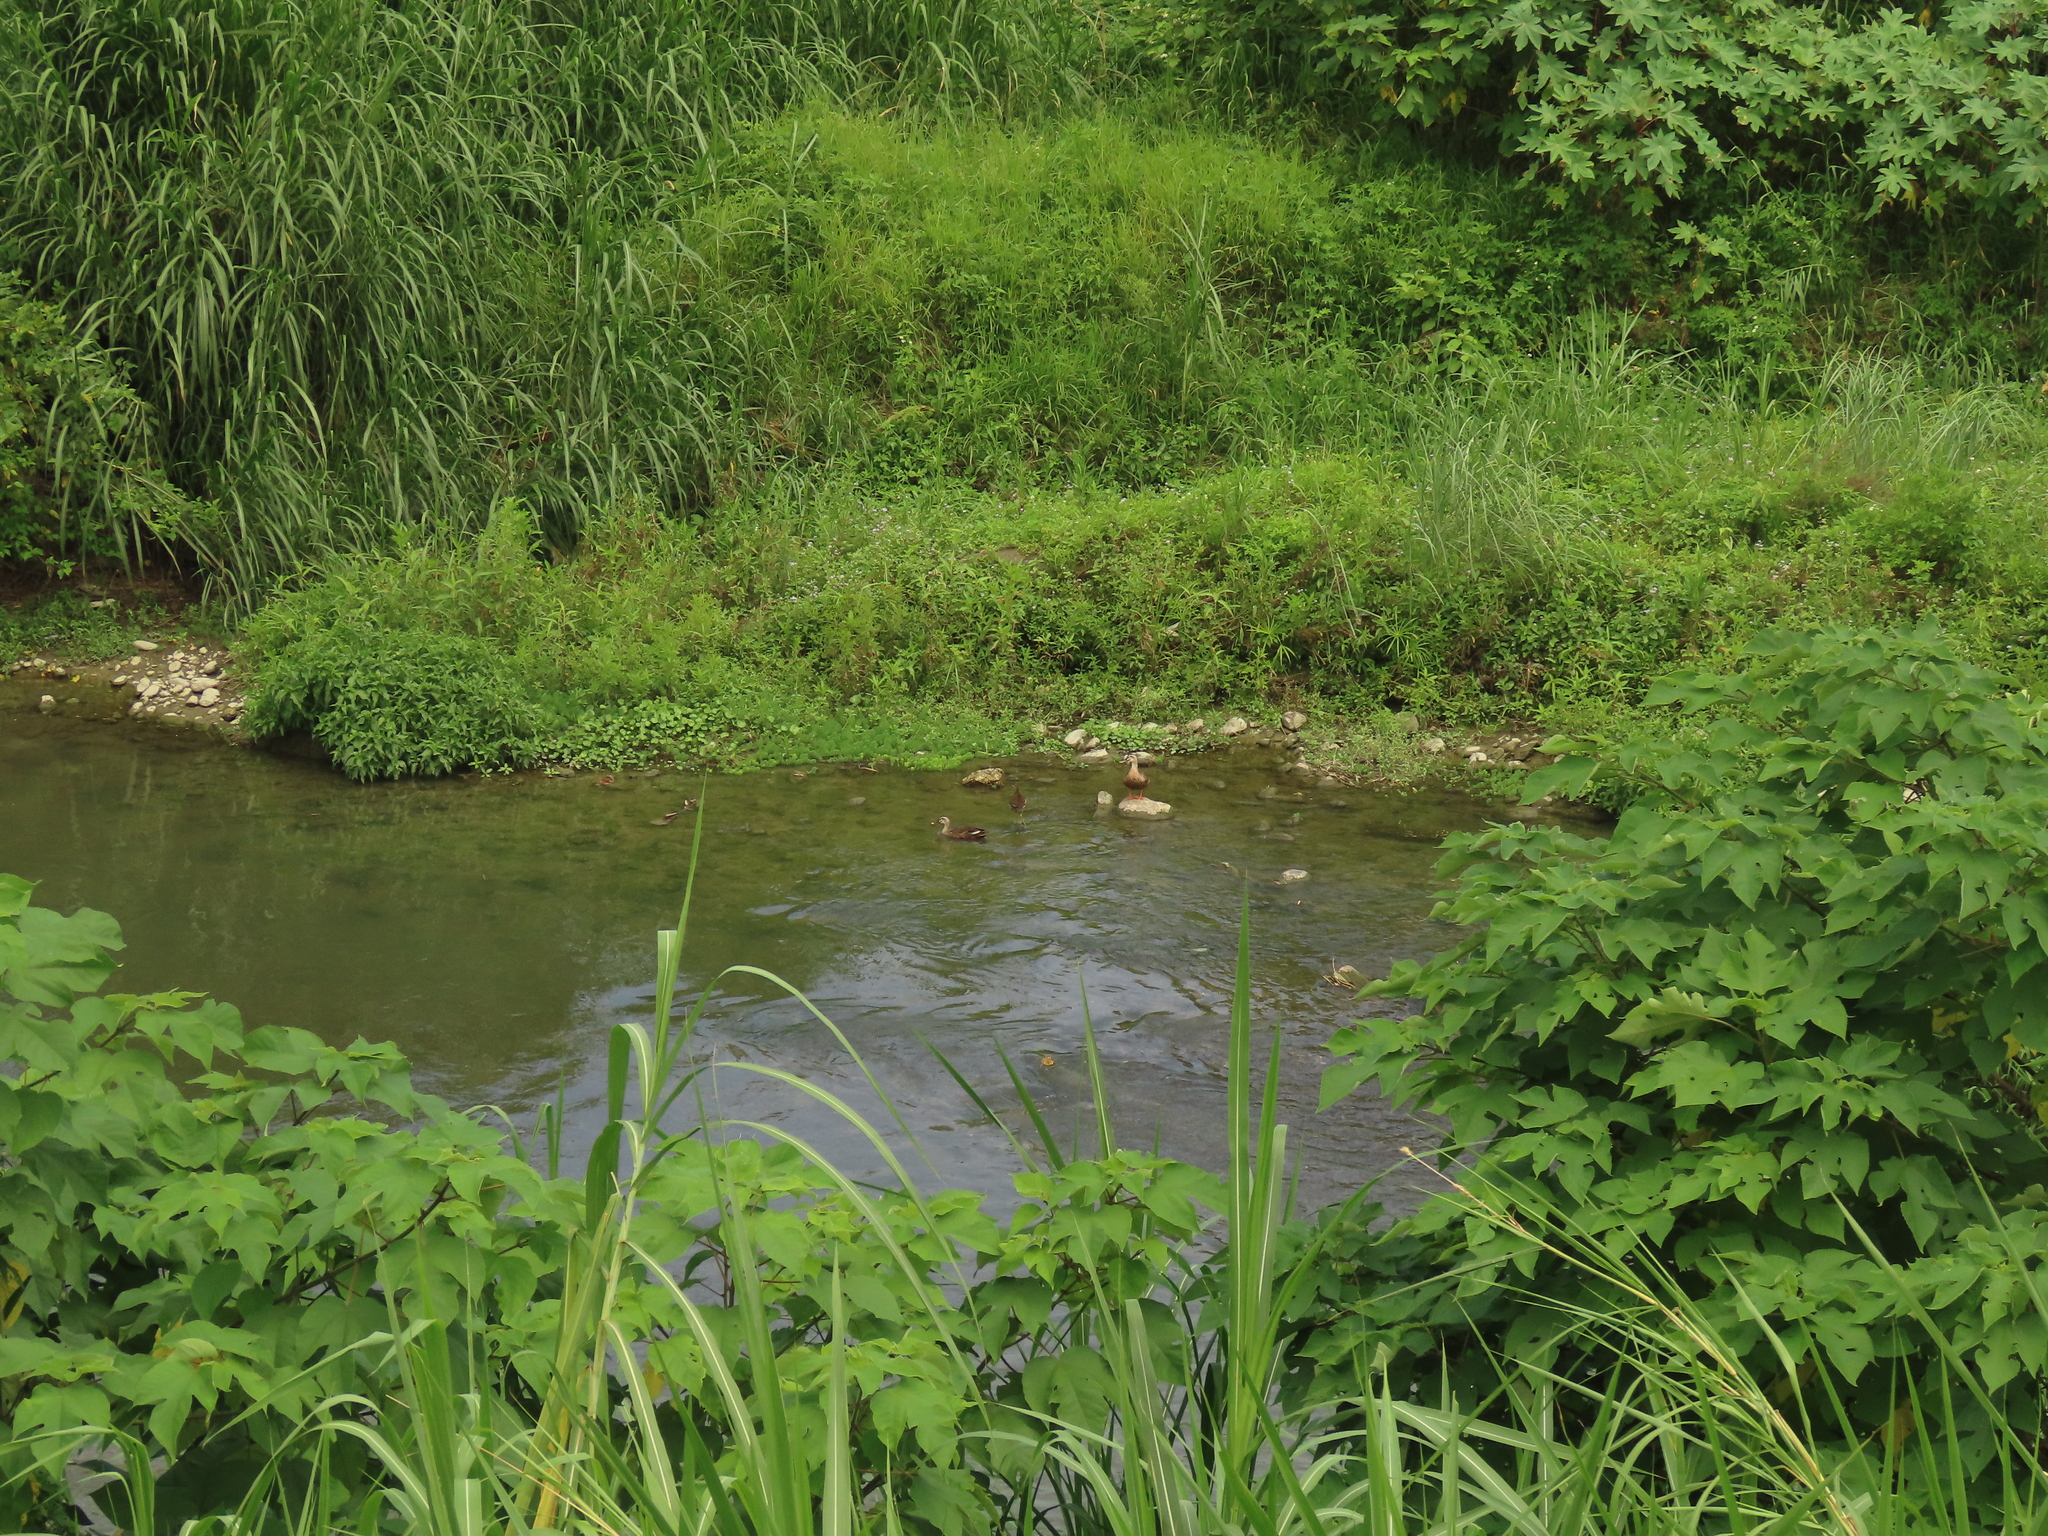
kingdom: Animalia
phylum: Chordata
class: Aves
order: Anseriformes
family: Anatidae
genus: Anas
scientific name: Anas zonorhyncha
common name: Eastern spot-billed duck
